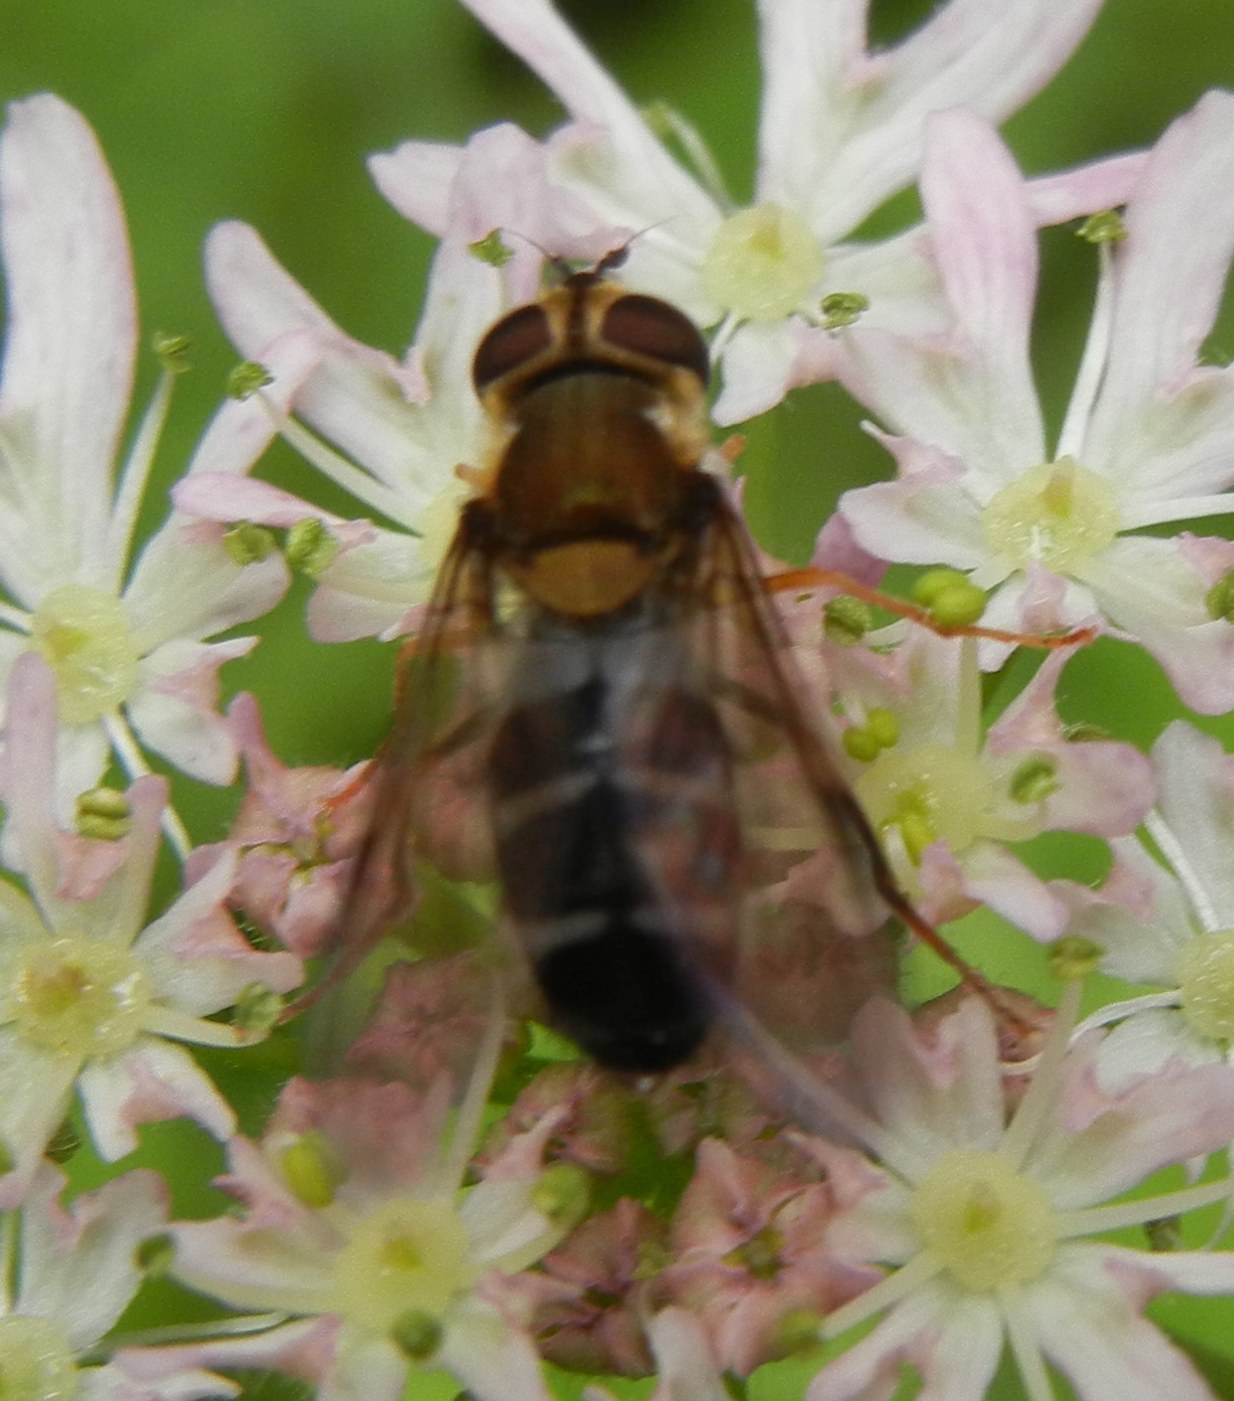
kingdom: Animalia
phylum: Arthropoda
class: Insecta
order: Diptera
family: Syrphidae
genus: Leucozona
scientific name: Leucozona glaucia
